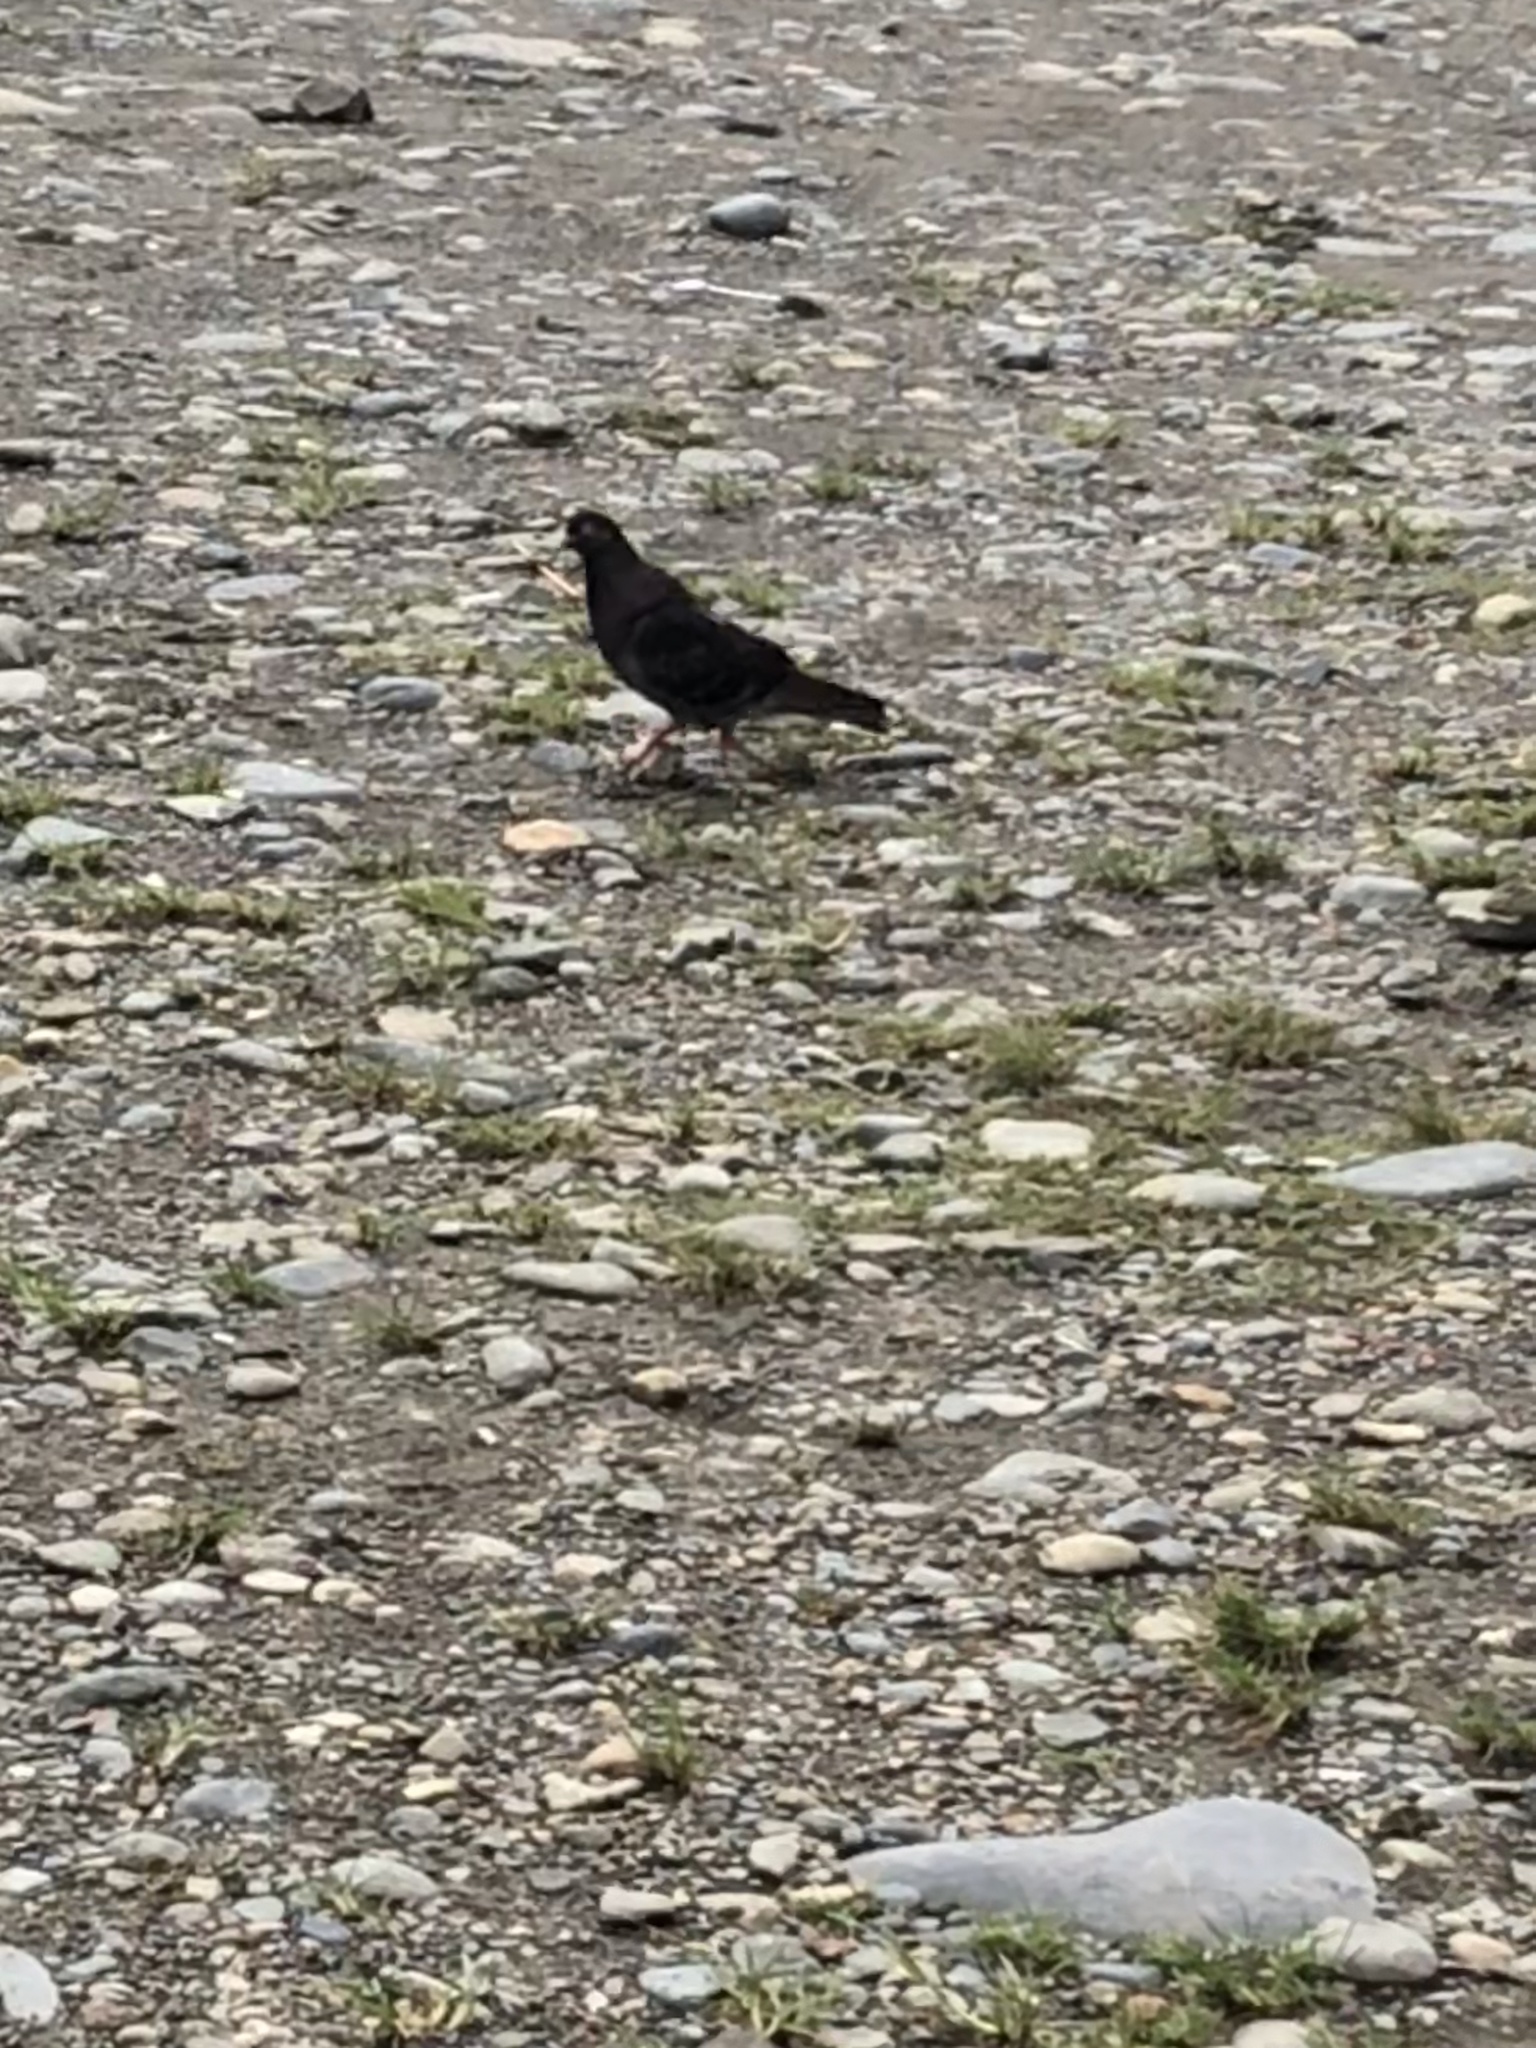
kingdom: Animalia
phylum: Chordata
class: Aves
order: Columbiformes
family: Columbidae
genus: Columba
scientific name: Columba livia
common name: Rock pigeon
